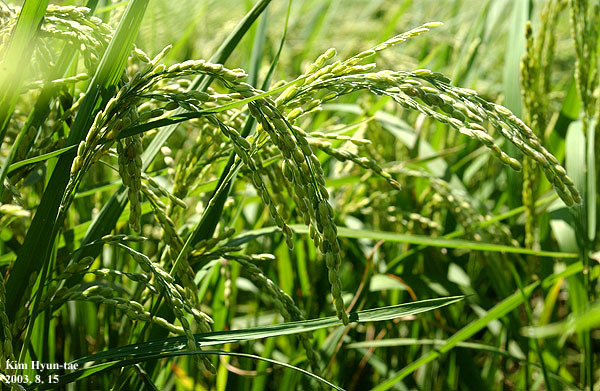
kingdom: Plantae
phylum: Tracheophyta
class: Liliopsida
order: Poales
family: Poaceae
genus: Oryza
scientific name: Oryza sativa
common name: Rice
